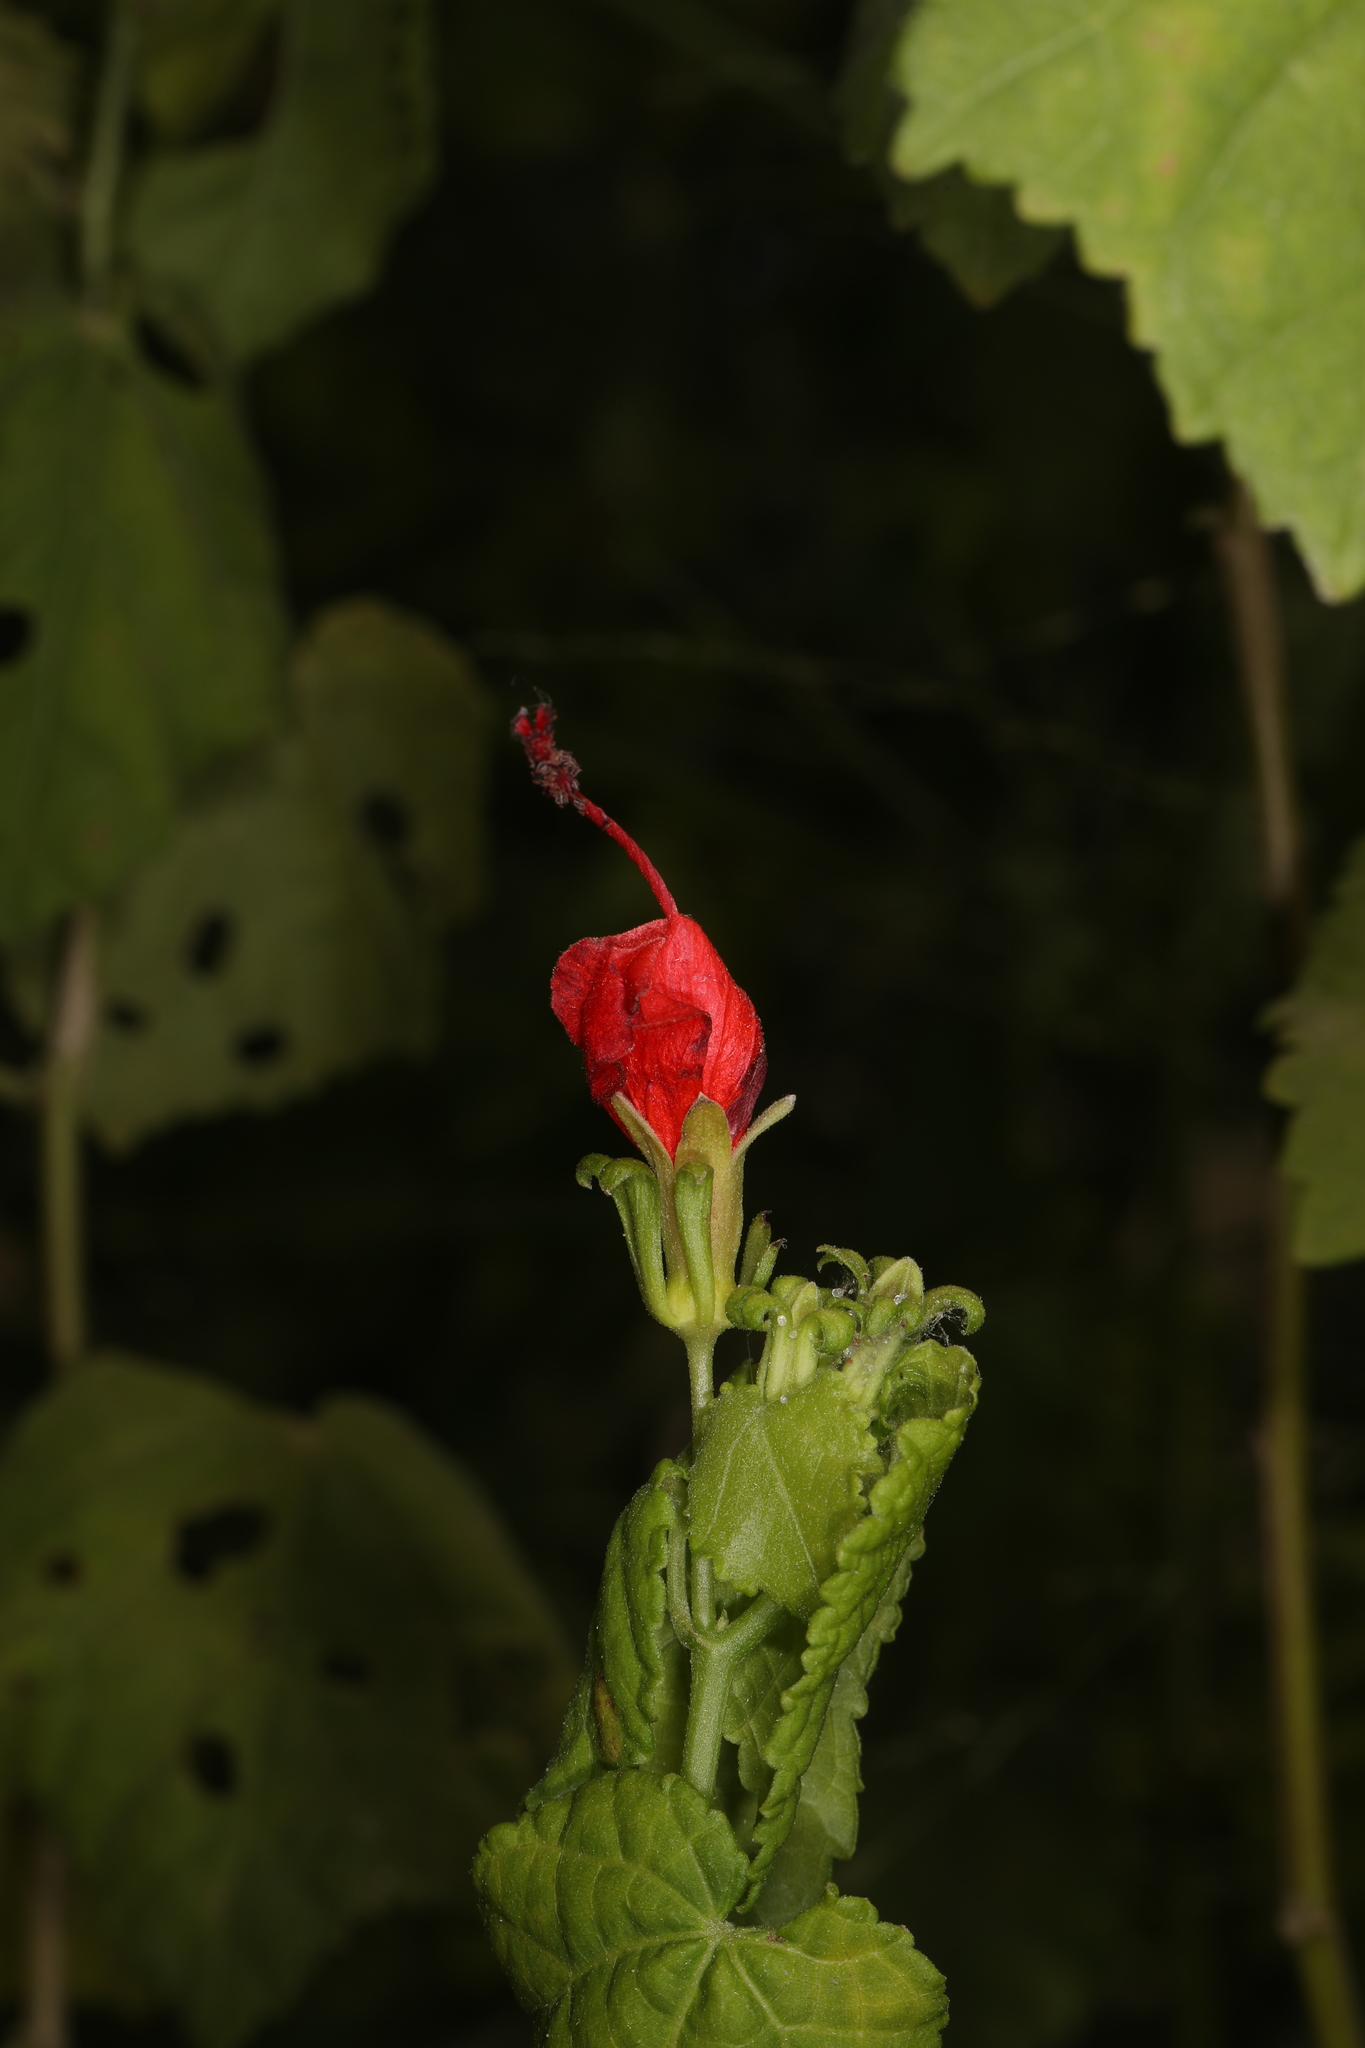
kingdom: Plantae
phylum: Tracheophyta
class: Magnoliopsida
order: Malvales
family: Malvaceae
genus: Malvaviscus
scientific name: Malvaviscus arboreus
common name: Wax mallow
